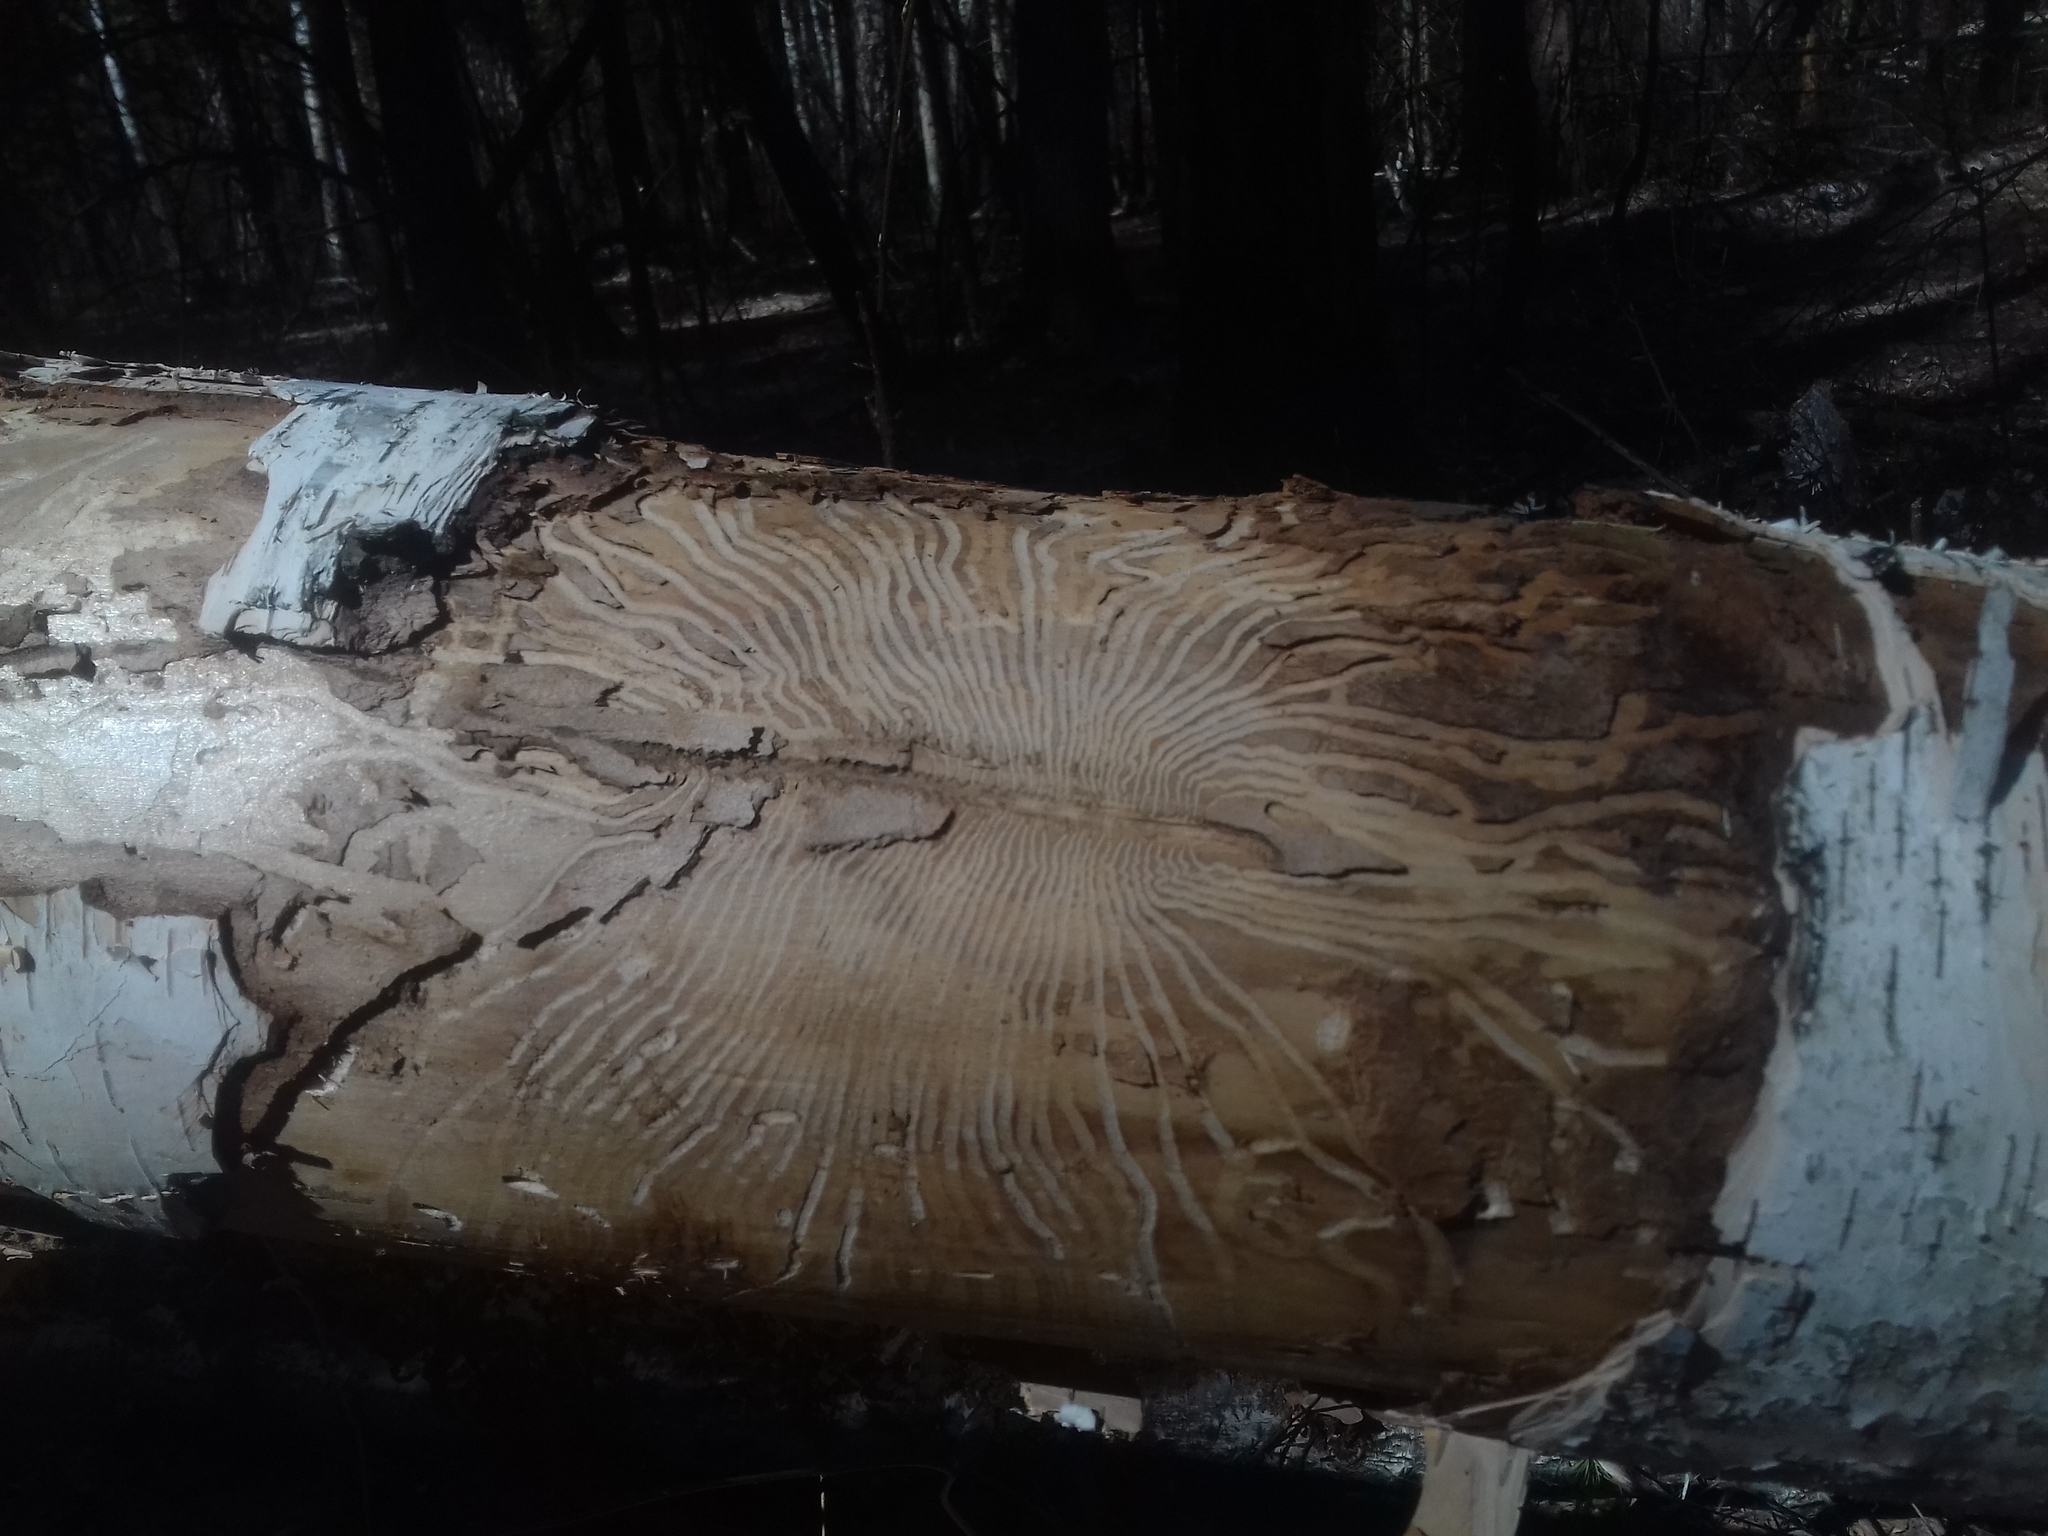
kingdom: Animalia
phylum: Arthropoda
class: Insecta
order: Coleoptera
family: Curculionidae
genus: Scolytus
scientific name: Scolytus ratzeburgii
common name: Birch bark beetle
